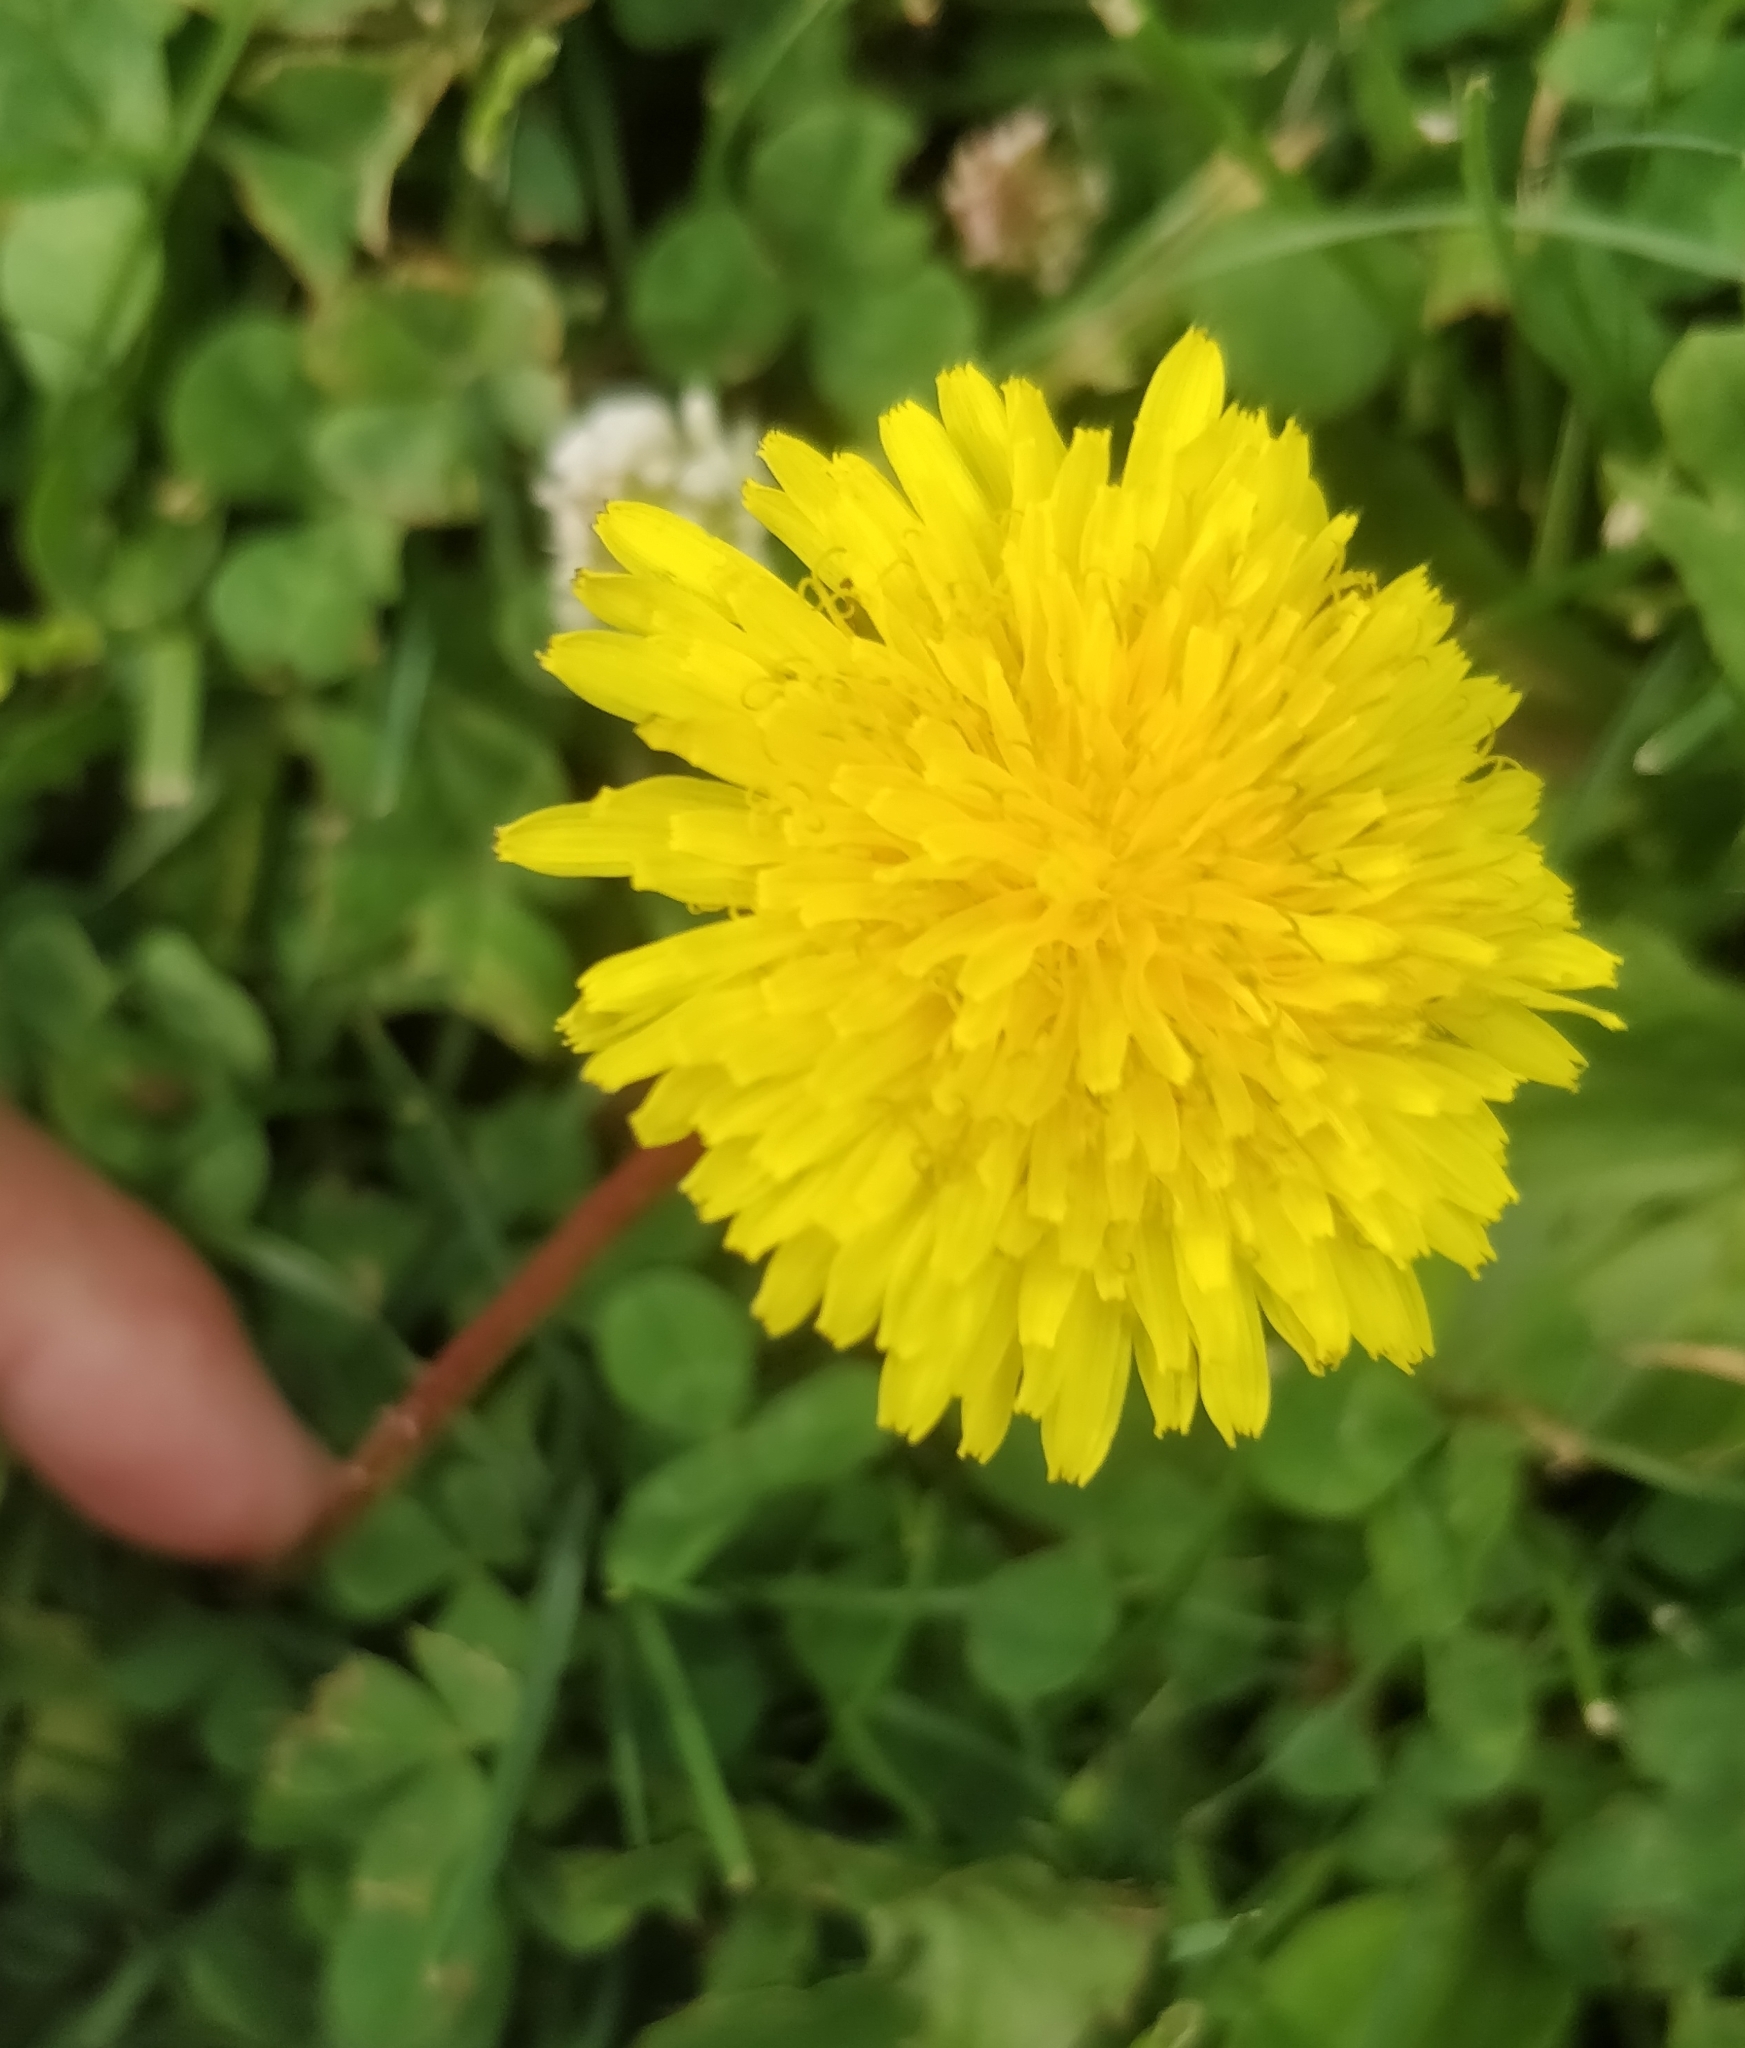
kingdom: Plantae
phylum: Tracheophyta
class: Magnoliopsida
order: Asterales
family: Asteraceae
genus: Taraxacum
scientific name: Taraxacum officinale
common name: Common dandelion
